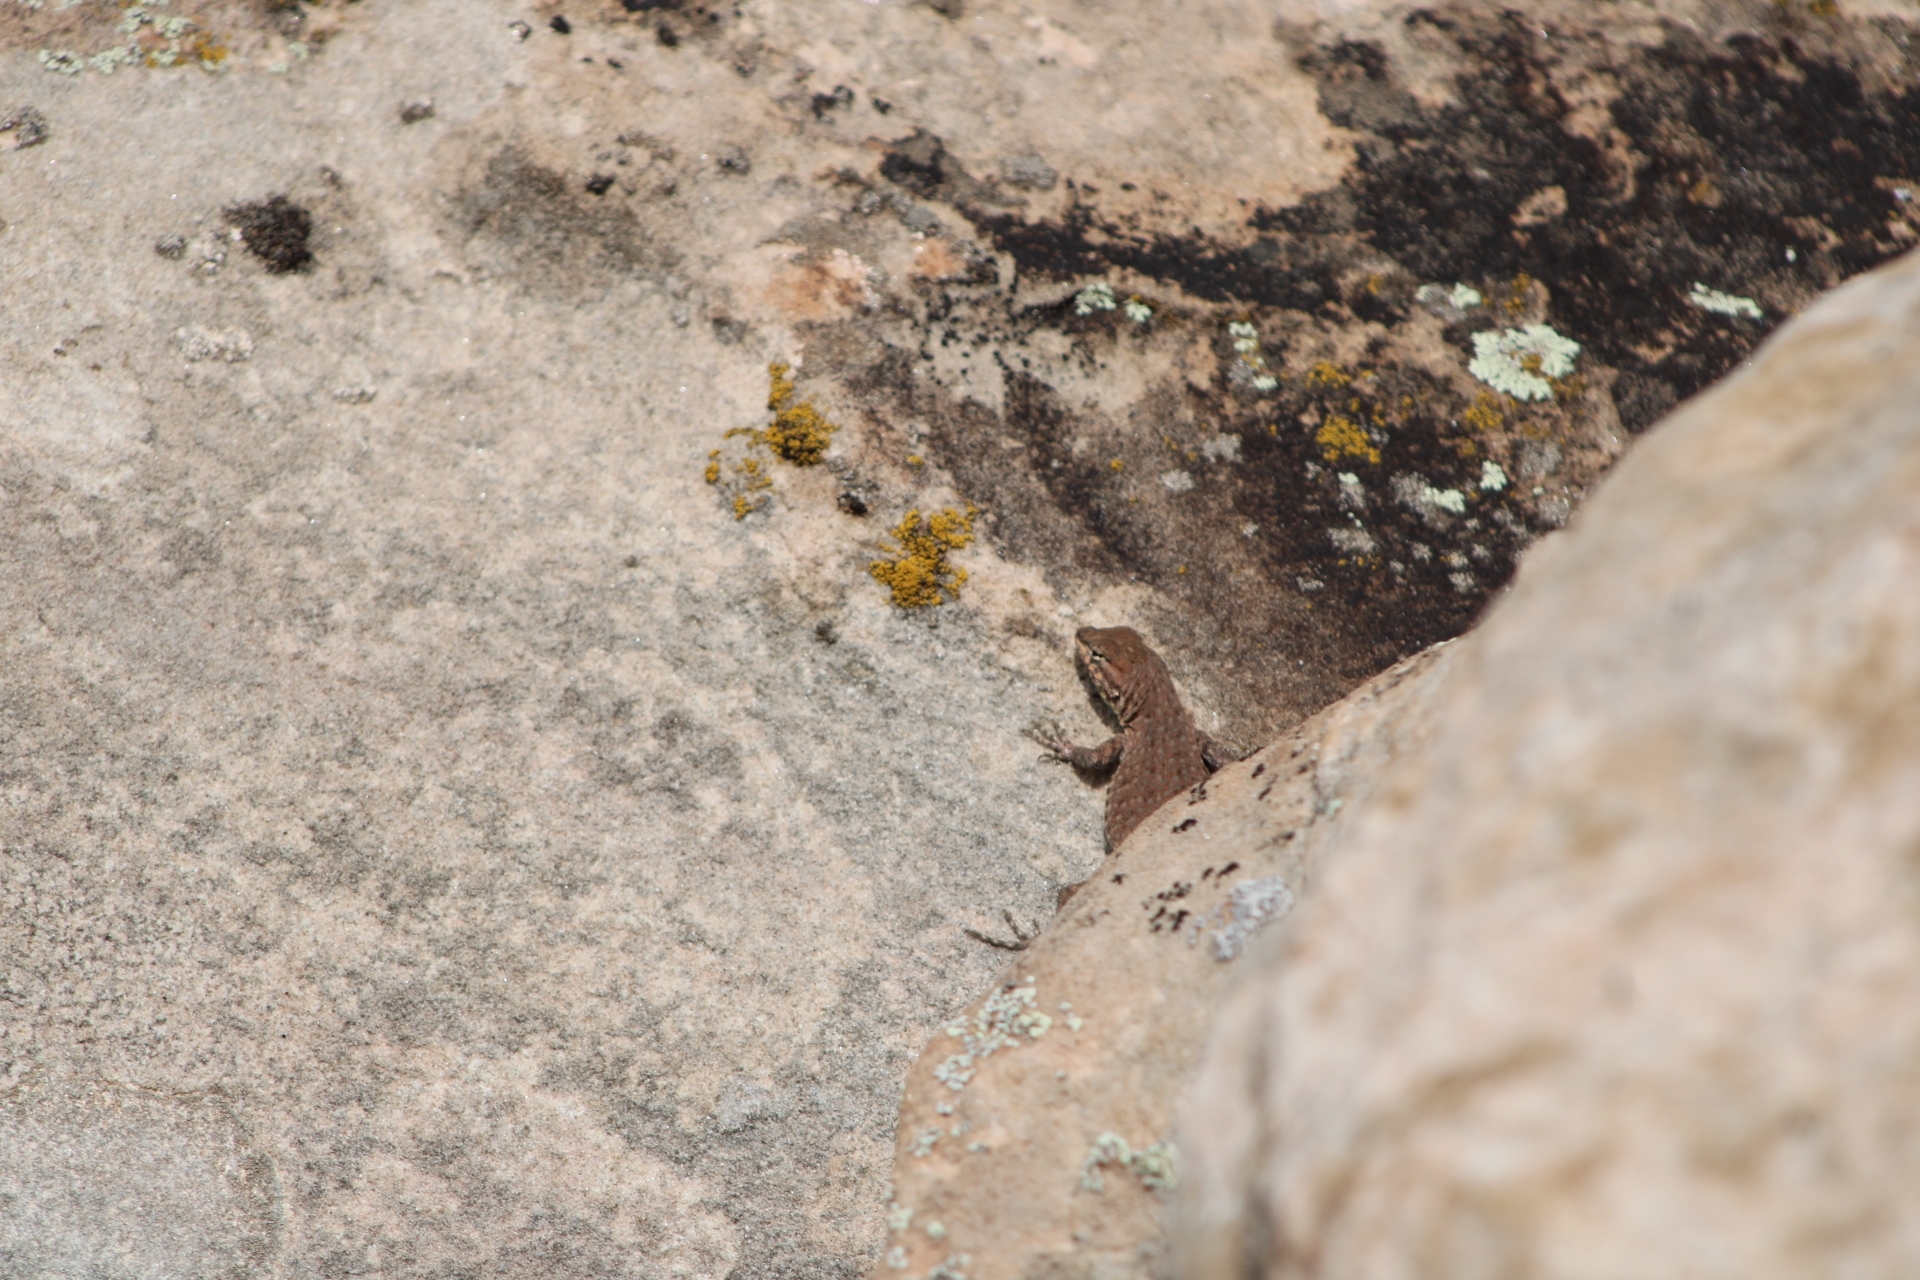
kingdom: Animalia
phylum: Chordata
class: Squamata
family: Phrynosomatidae
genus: Uta
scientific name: Uta stansburiana
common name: Side-blotched lizard
